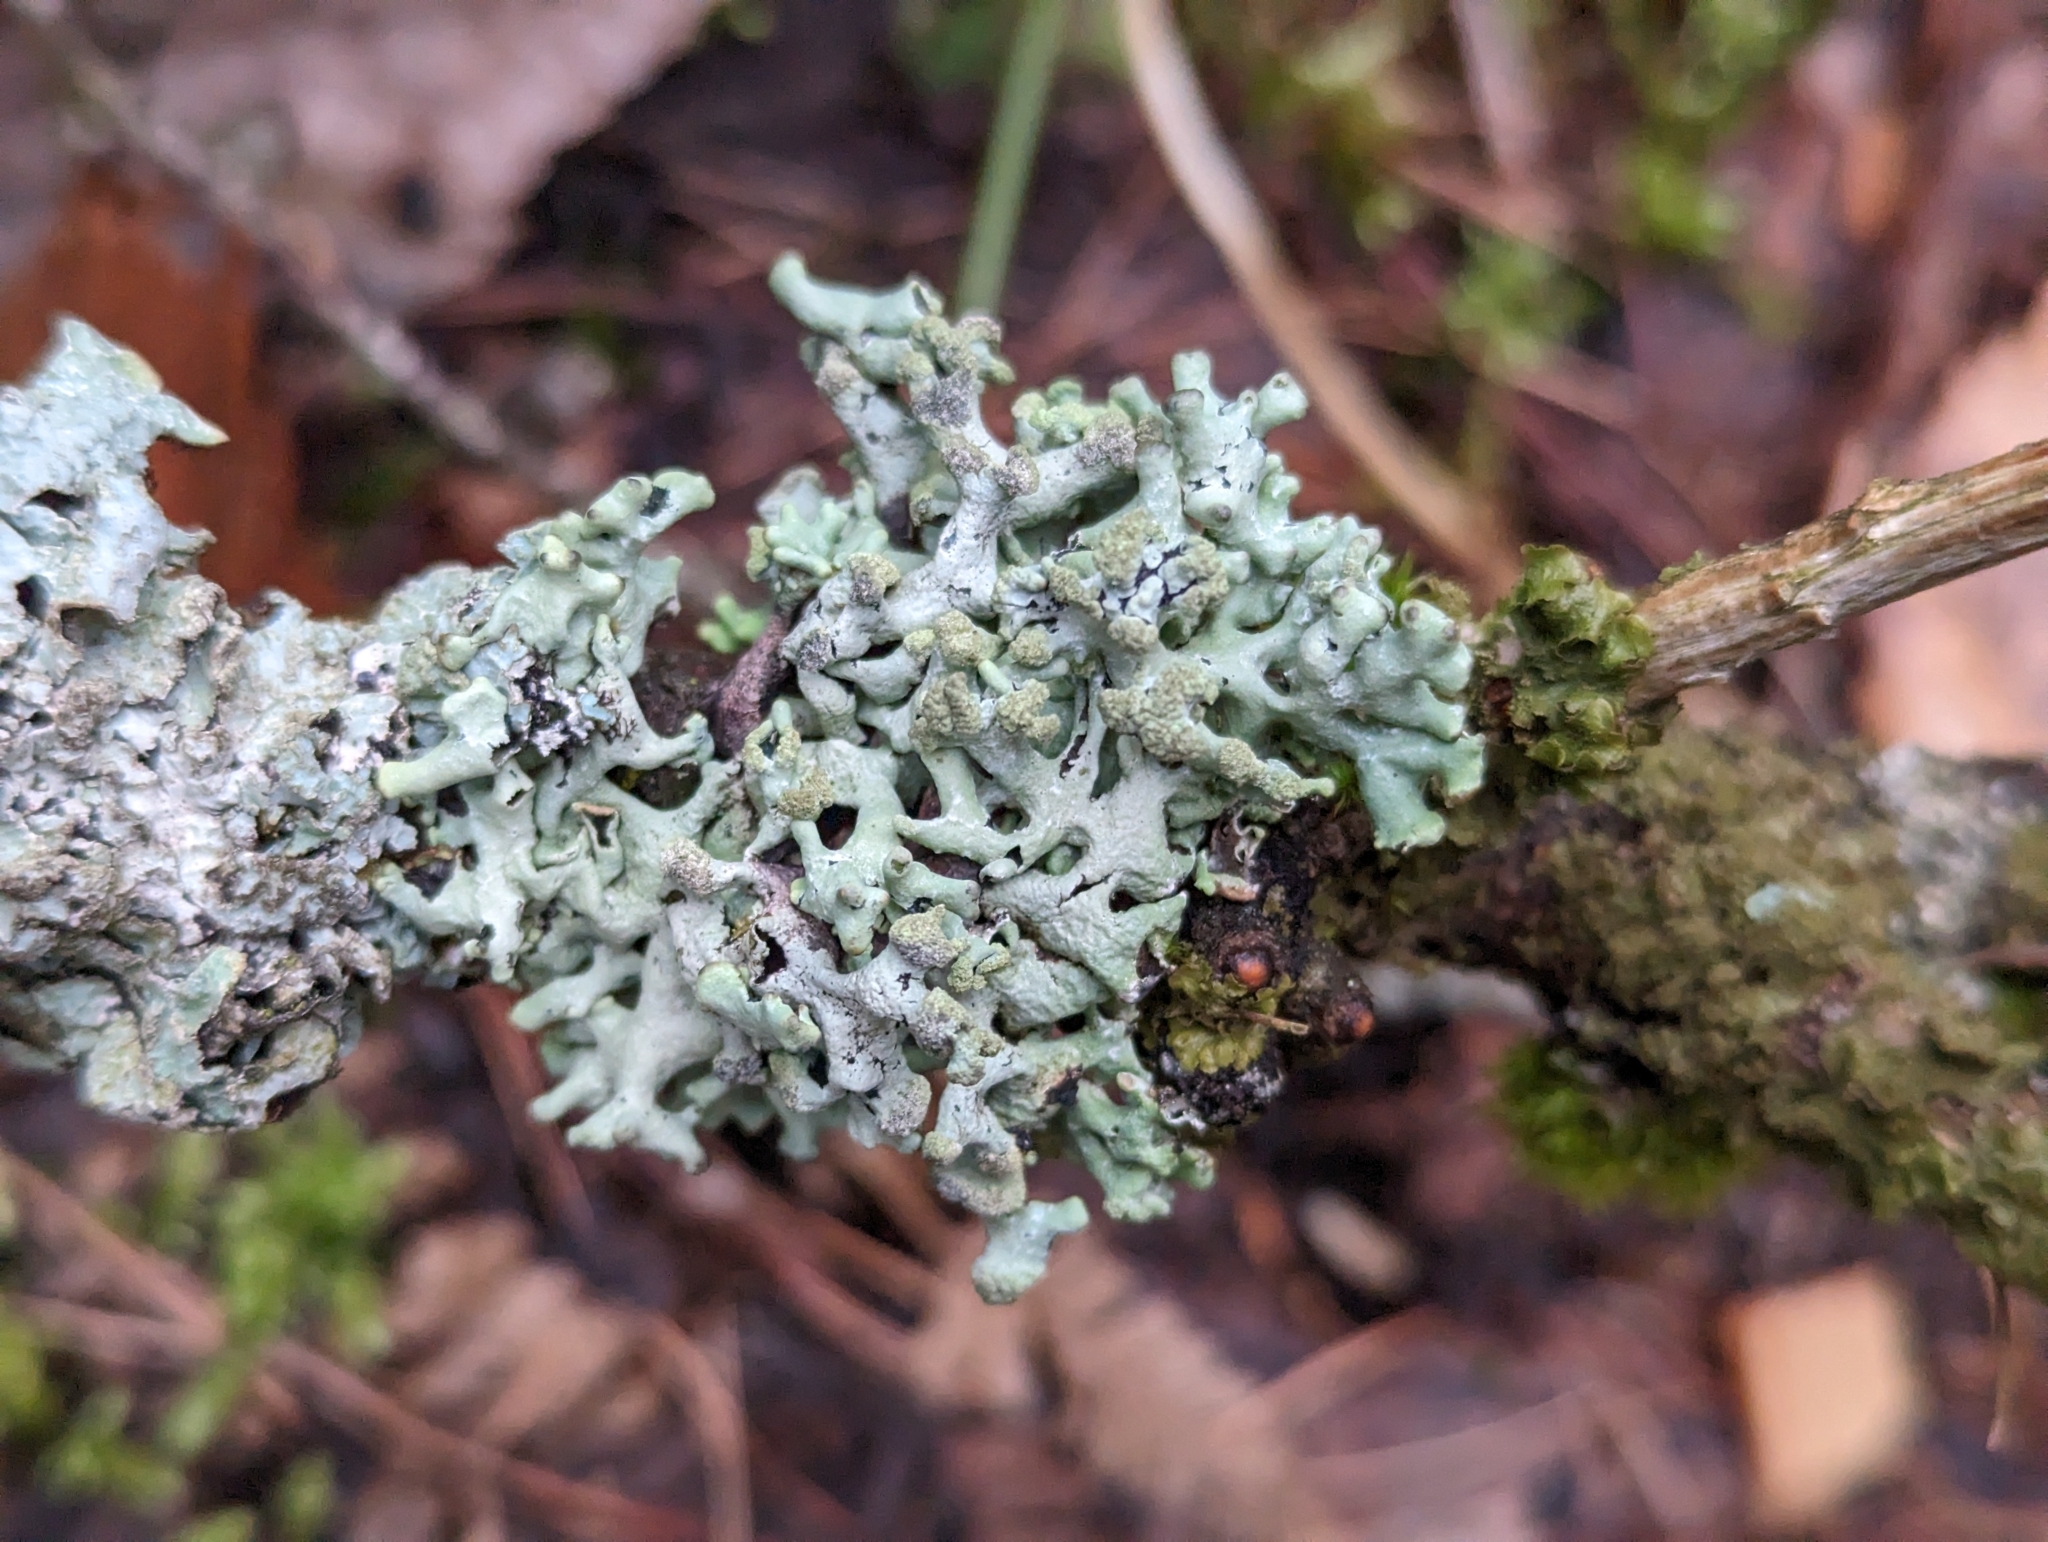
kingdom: Fungi
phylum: Ascomycota
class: Lecanoromycetes
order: Lecanorales
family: Parmeliaceae
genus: Hypogymnia
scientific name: Hypogymnia tubulosa
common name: Powder-headed tube lichen
